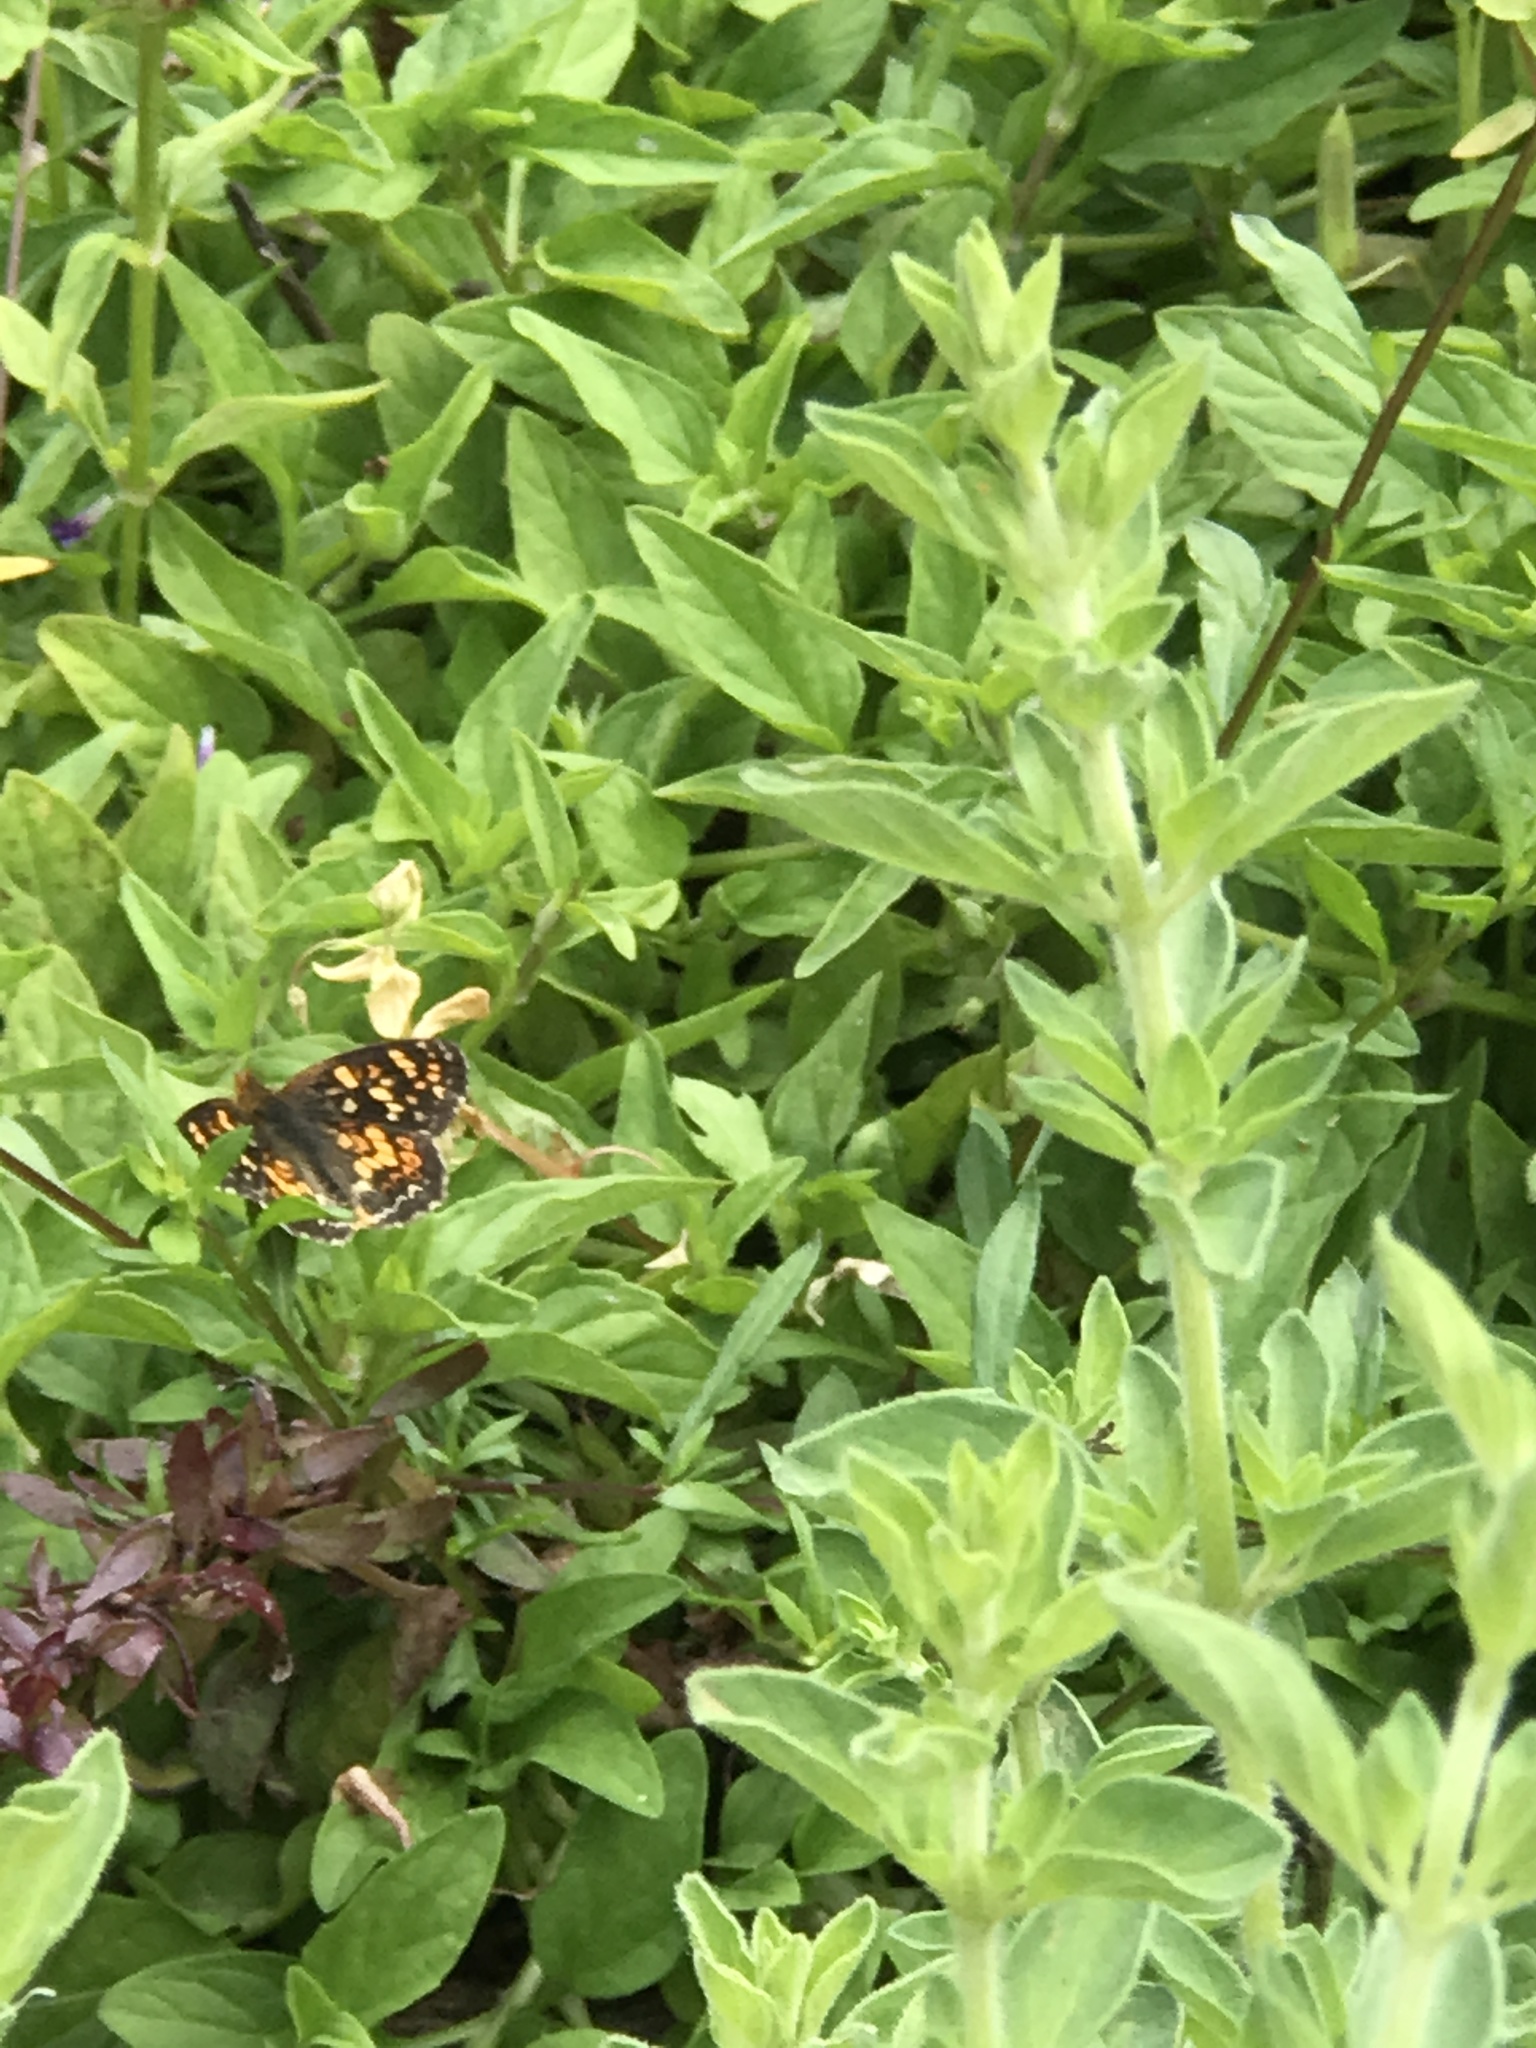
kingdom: Animalia
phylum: Arthropoda
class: Insecta
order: Lepidoptera
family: Nymphalidae
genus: Phyciodes
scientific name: Phyciodes tharos
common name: Pearl crescent
